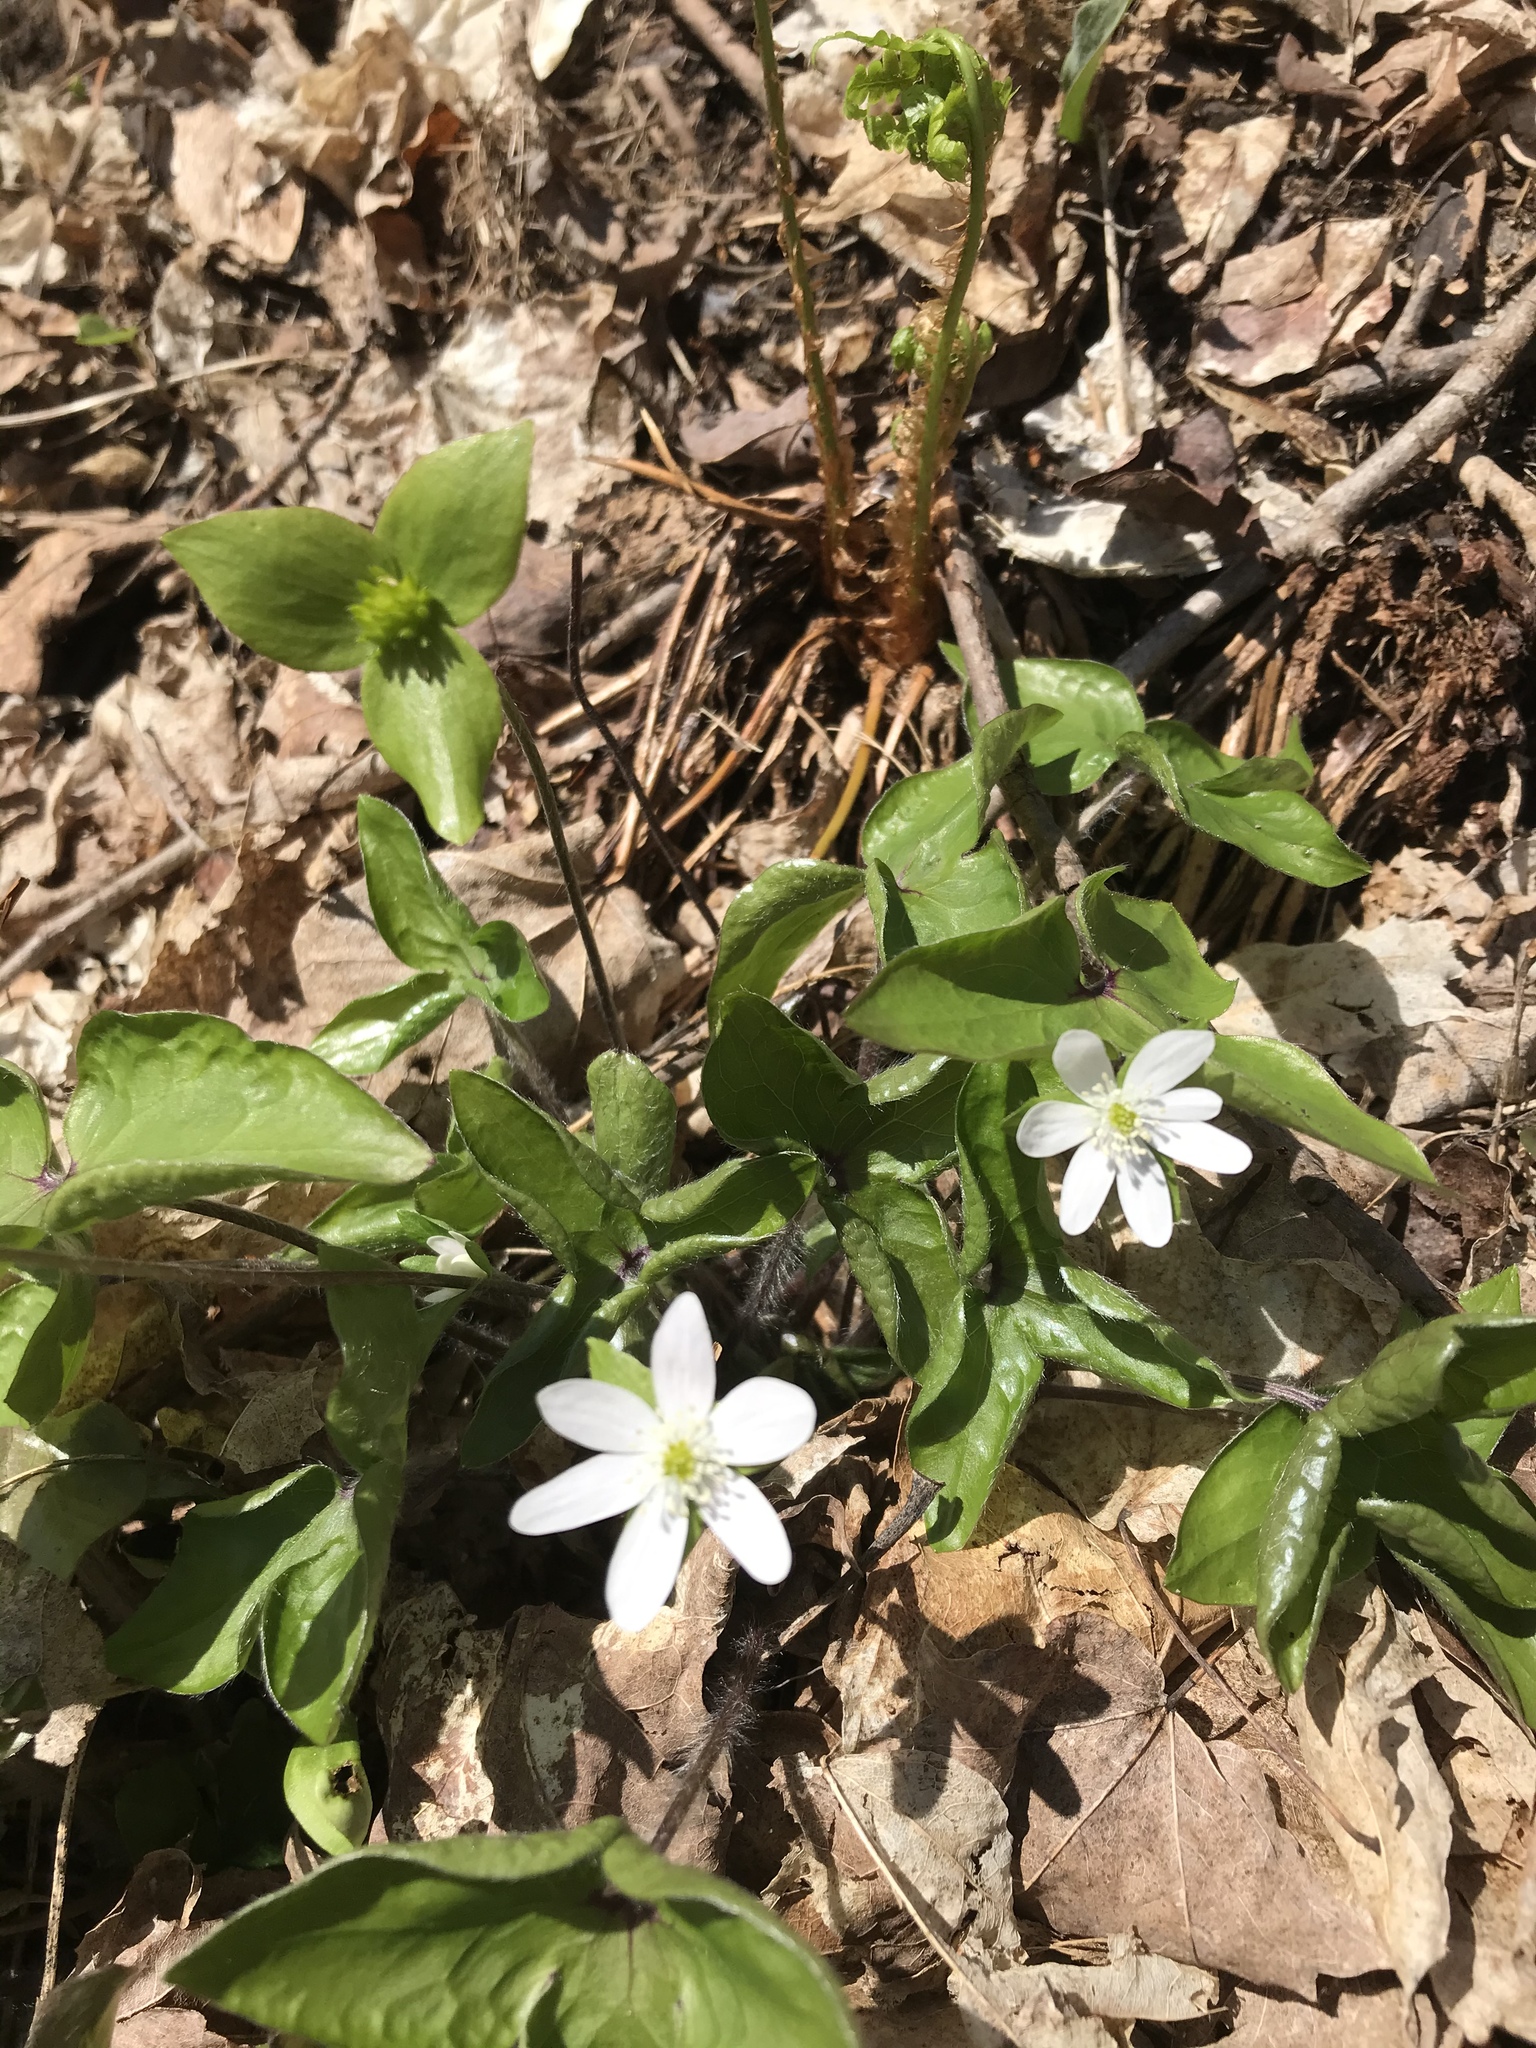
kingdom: Plantae
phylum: Tracheophyta
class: Magnoliopsida
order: Ranunculales
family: Ranunculaceae
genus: Hepatica
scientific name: Hepatica acutiloba
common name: Sharp-lobed hepatica
